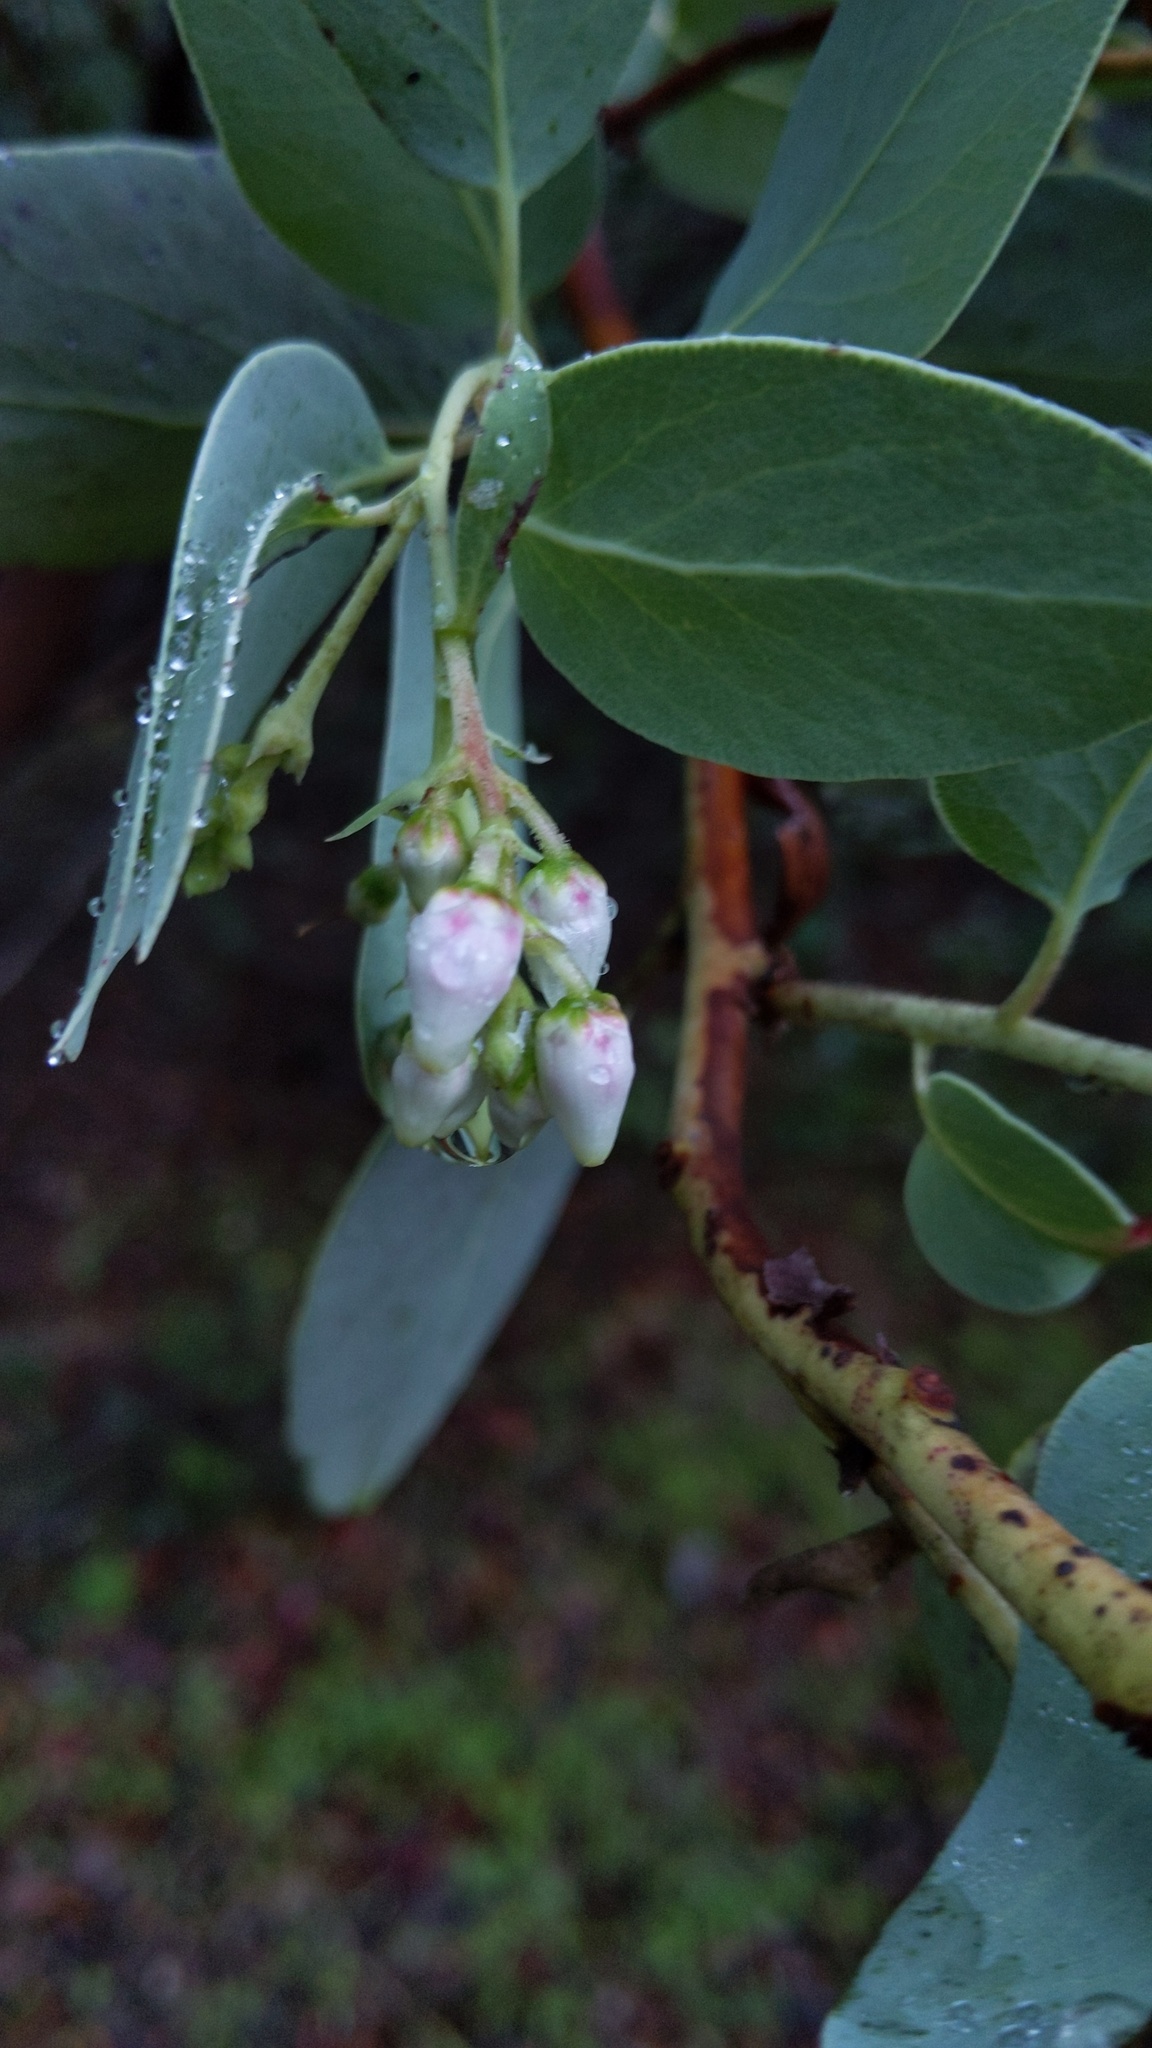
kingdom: Plantae
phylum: Tracheophyta
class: Magnoliopsida
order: Ericales
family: Ericaceae
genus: Arctostaphylos
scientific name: Arctostaphylos glauca
